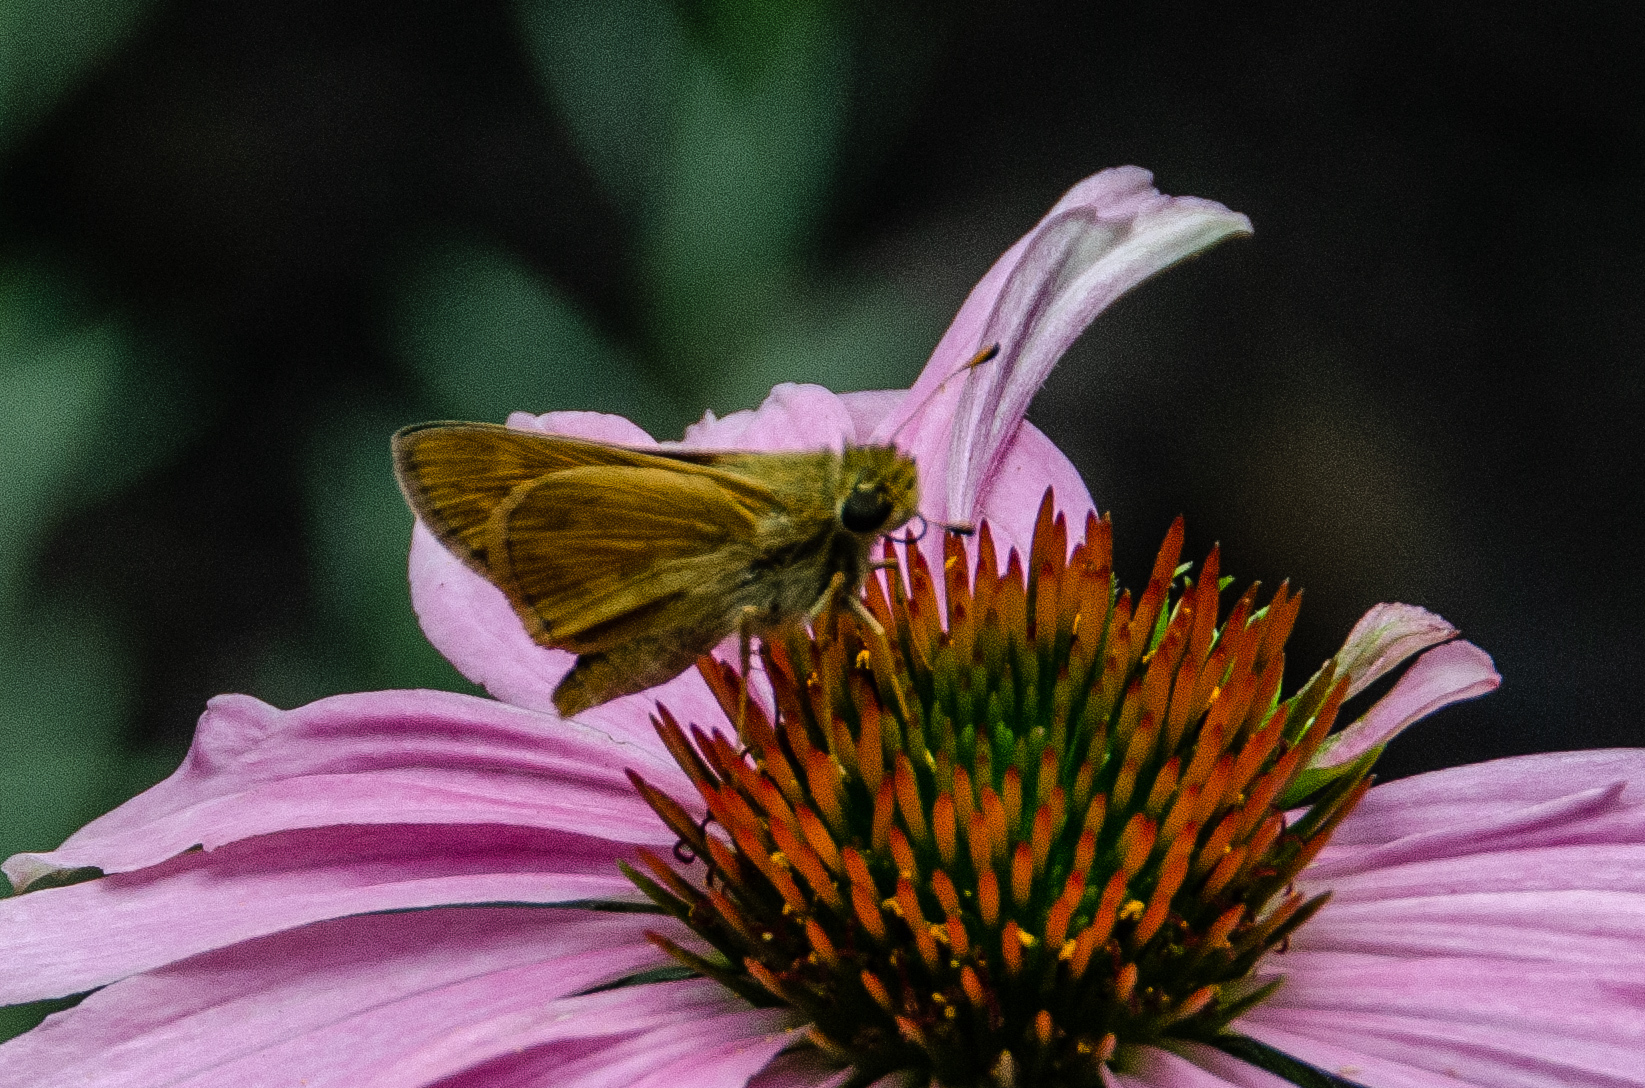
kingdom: Animalia
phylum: Arthropoda
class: Insecta
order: Lepidoptera
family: Hesperiidae
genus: Atalopedes
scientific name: Atalopedes
